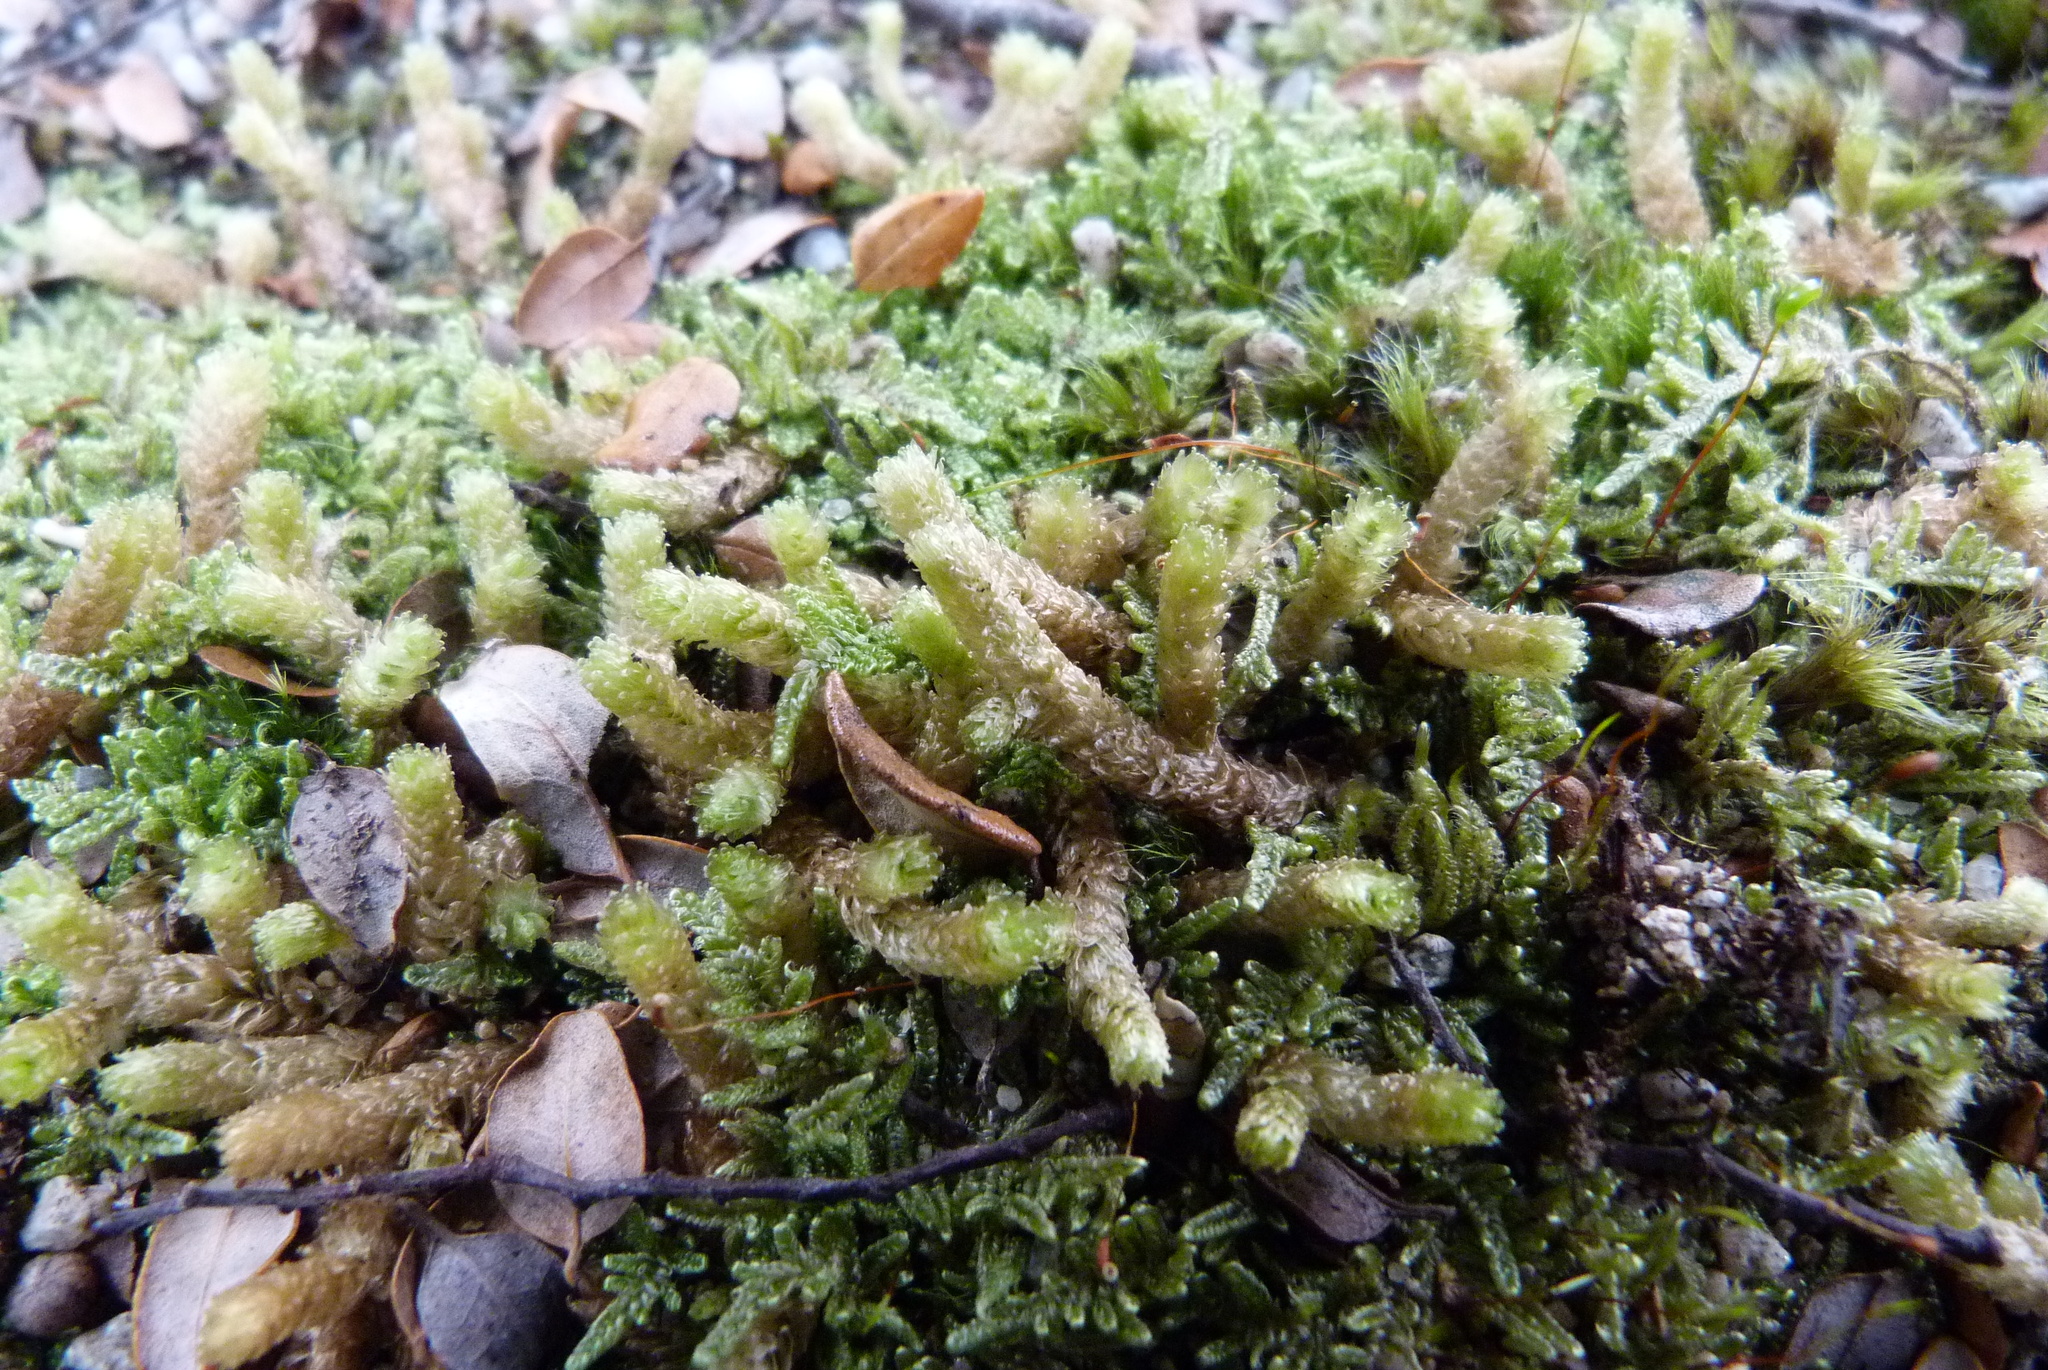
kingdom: Plantae
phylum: Bryophyta
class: Bryopsida
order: Ptychomniales
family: Ptychomniaceae
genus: Cladomnion
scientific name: Cladomnion ericoides
